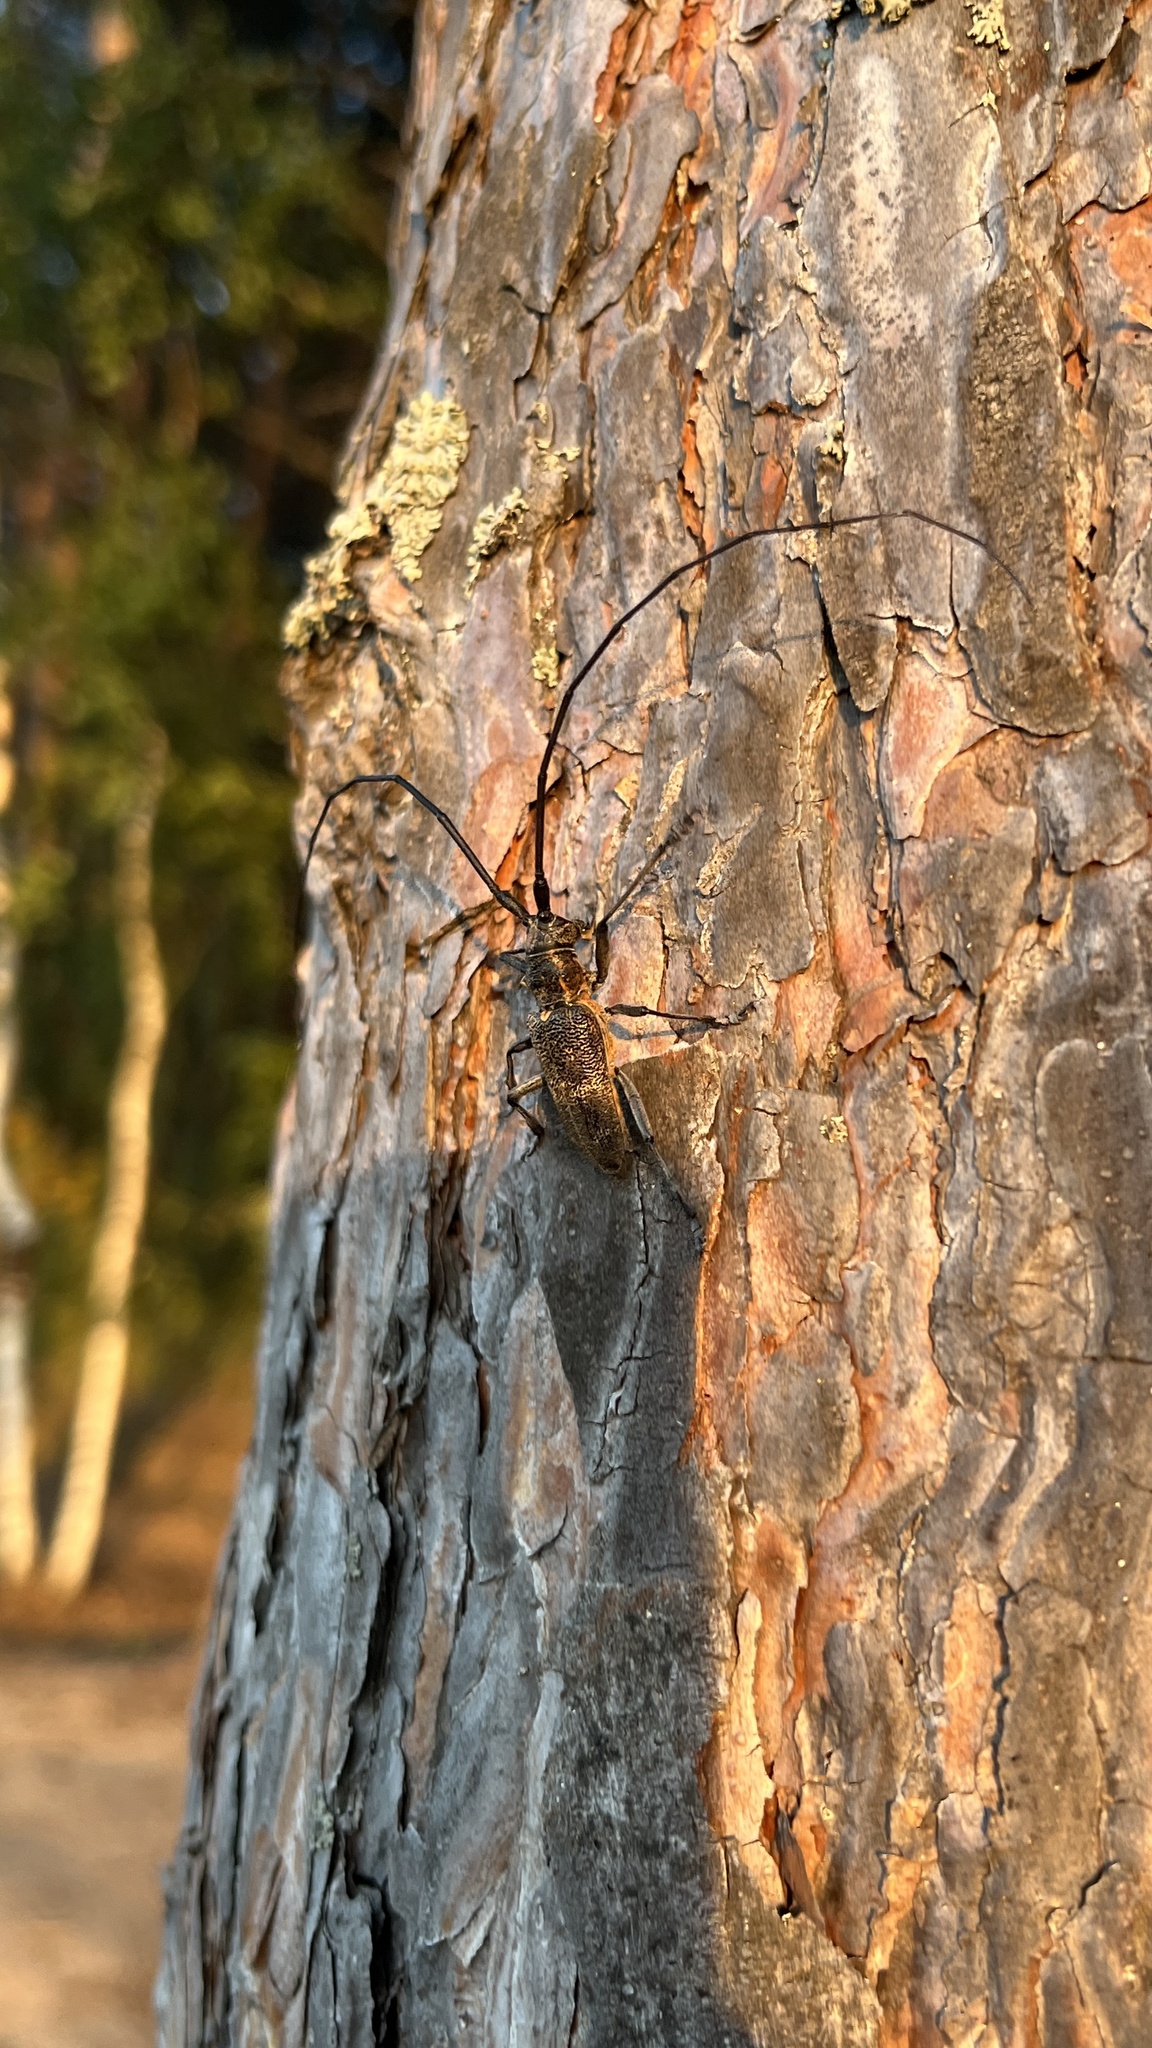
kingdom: Animalia
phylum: Arthropoda
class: Insecta
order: Coleoptera
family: Cerambycidae
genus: Monochamus
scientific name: Monochamus galloprovincialis
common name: Pine sawyer
